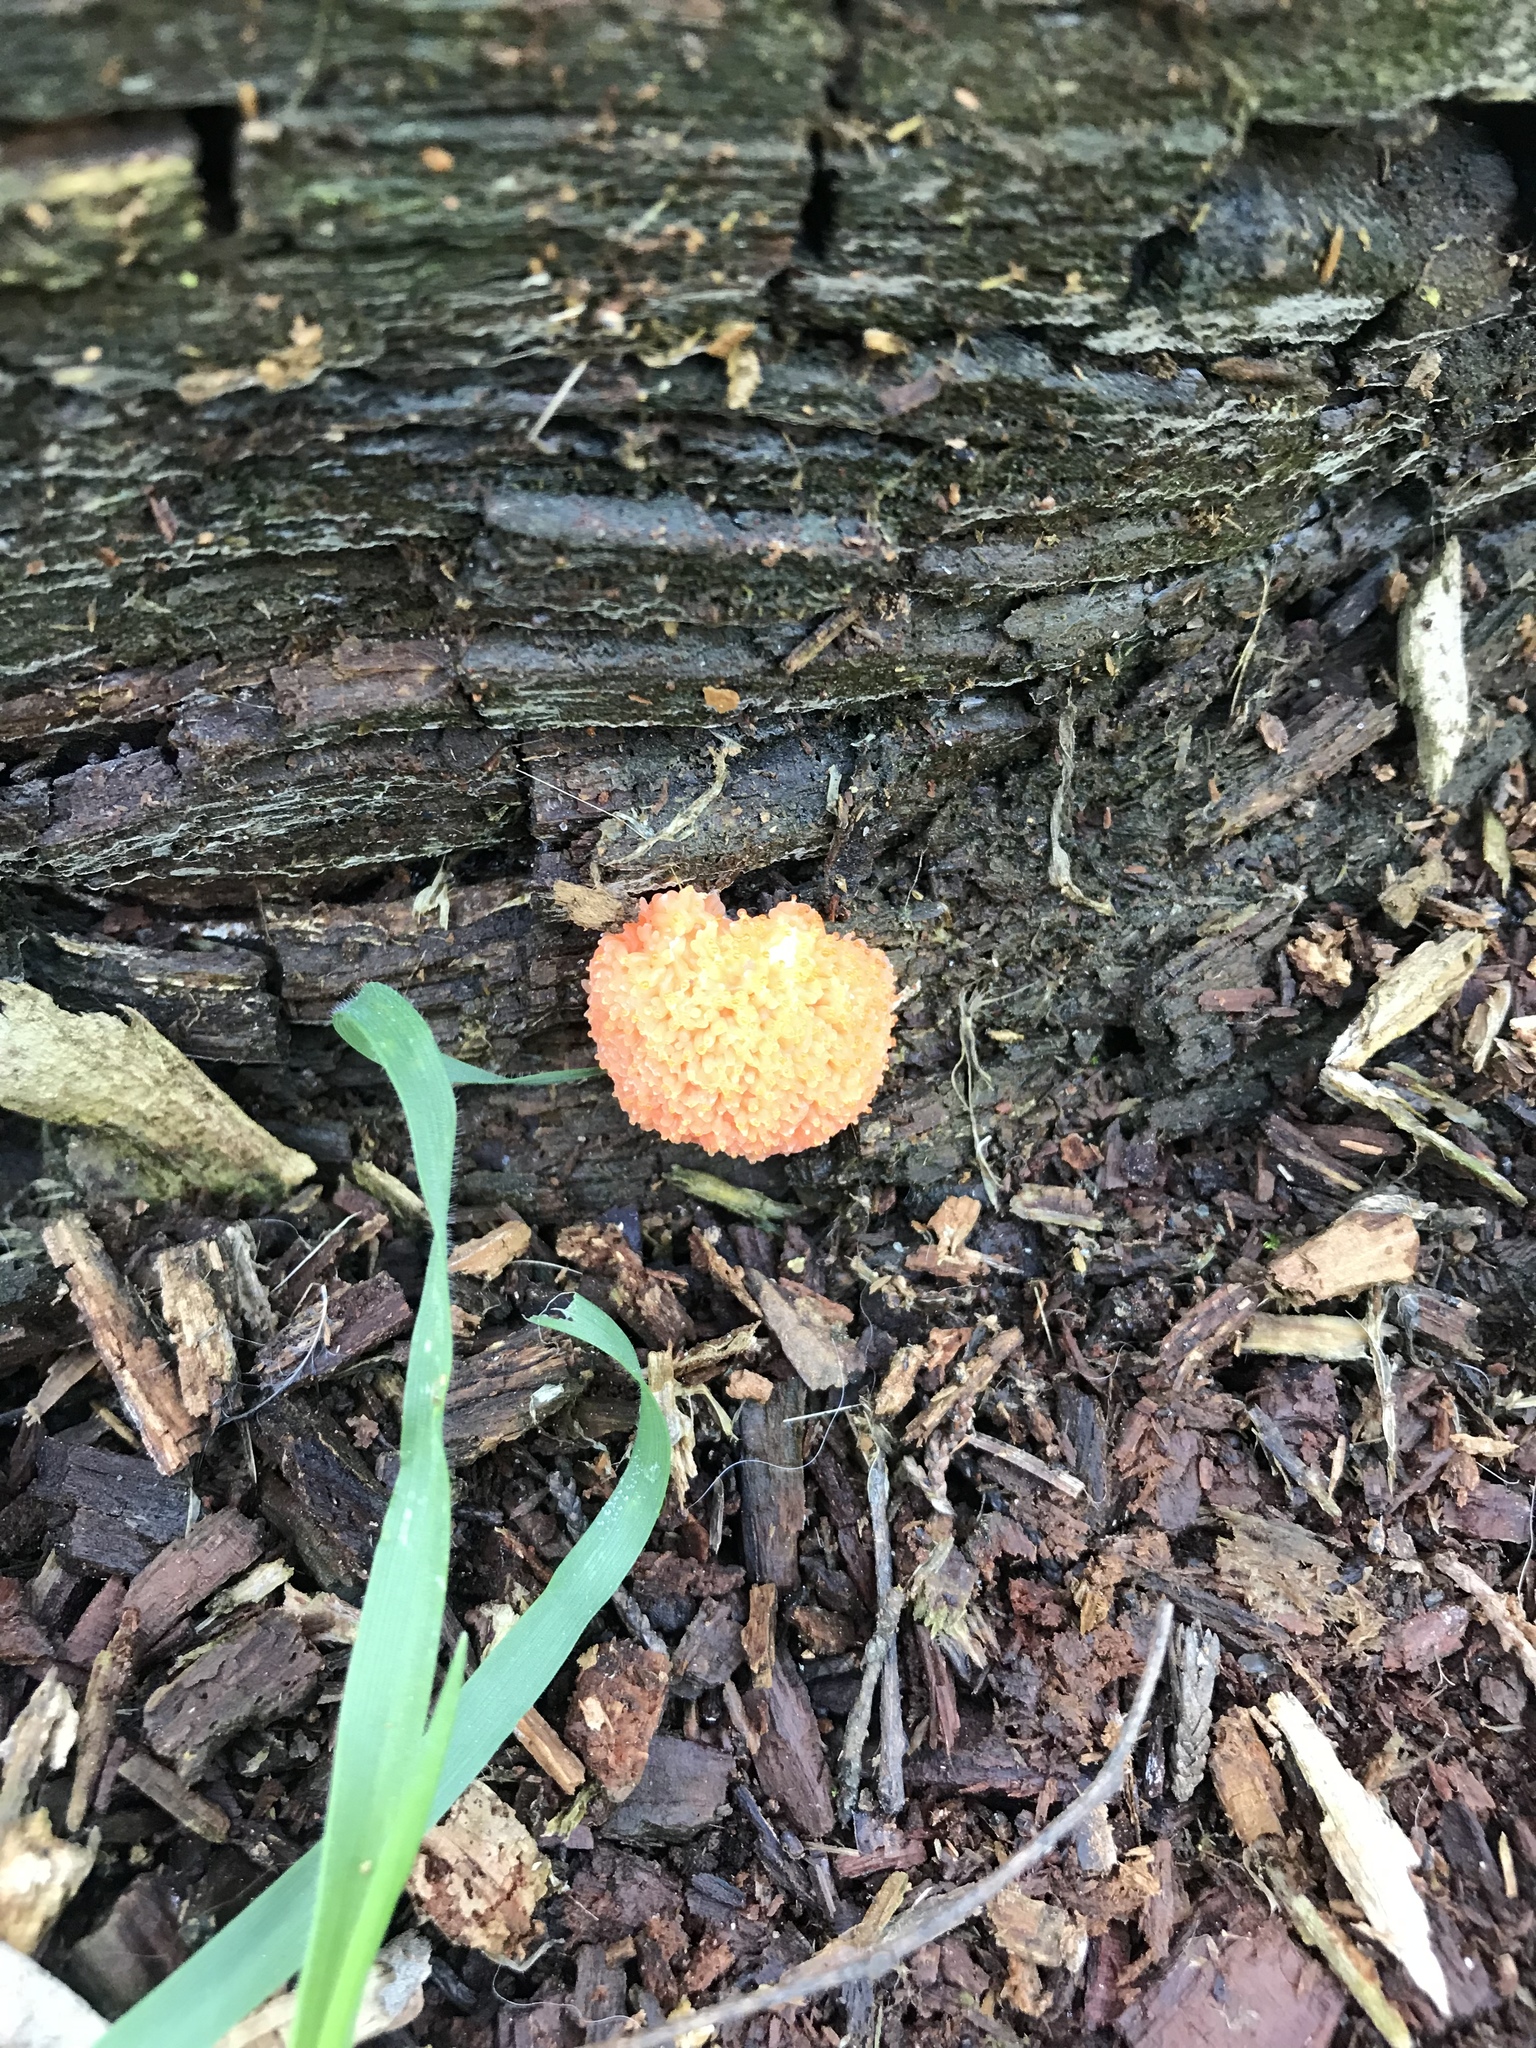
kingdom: Protozoa
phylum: Mycetozoa
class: Myxomycetes
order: Cribrariales
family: Tubiferaceae
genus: Tubifera
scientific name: Tubifera ferruginosa
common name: Red raspberry slime mold
